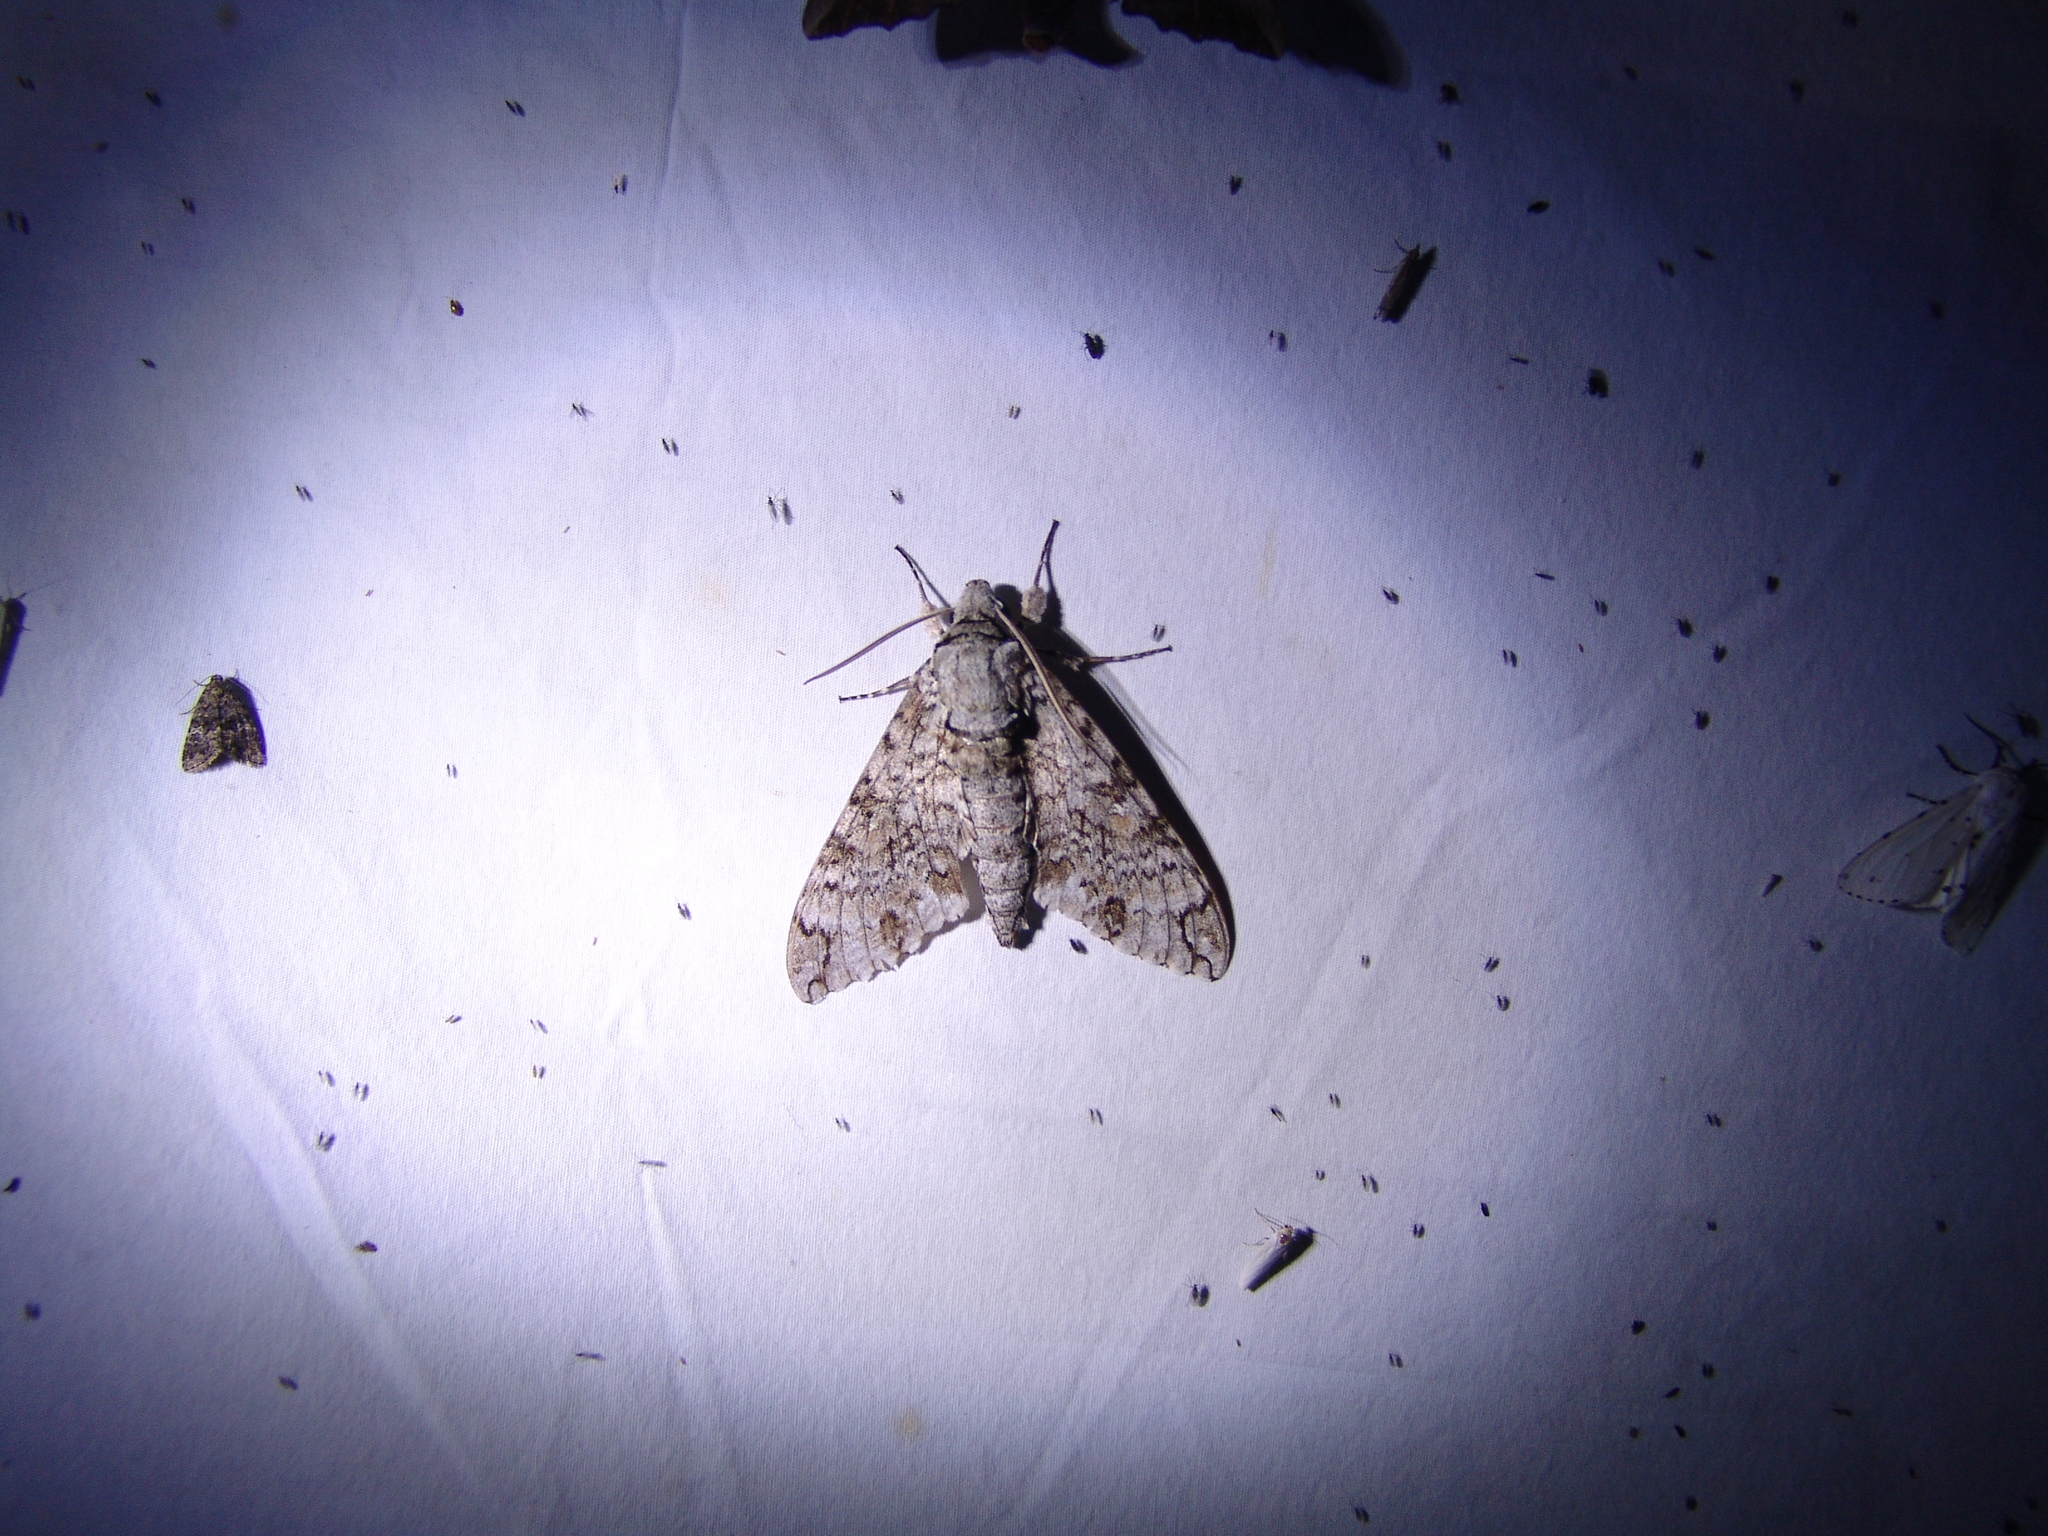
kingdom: Animalia
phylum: Arthropoda
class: Insecta
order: Lepidoptera
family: Sphingidae
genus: Manduca
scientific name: Manduca florestan
